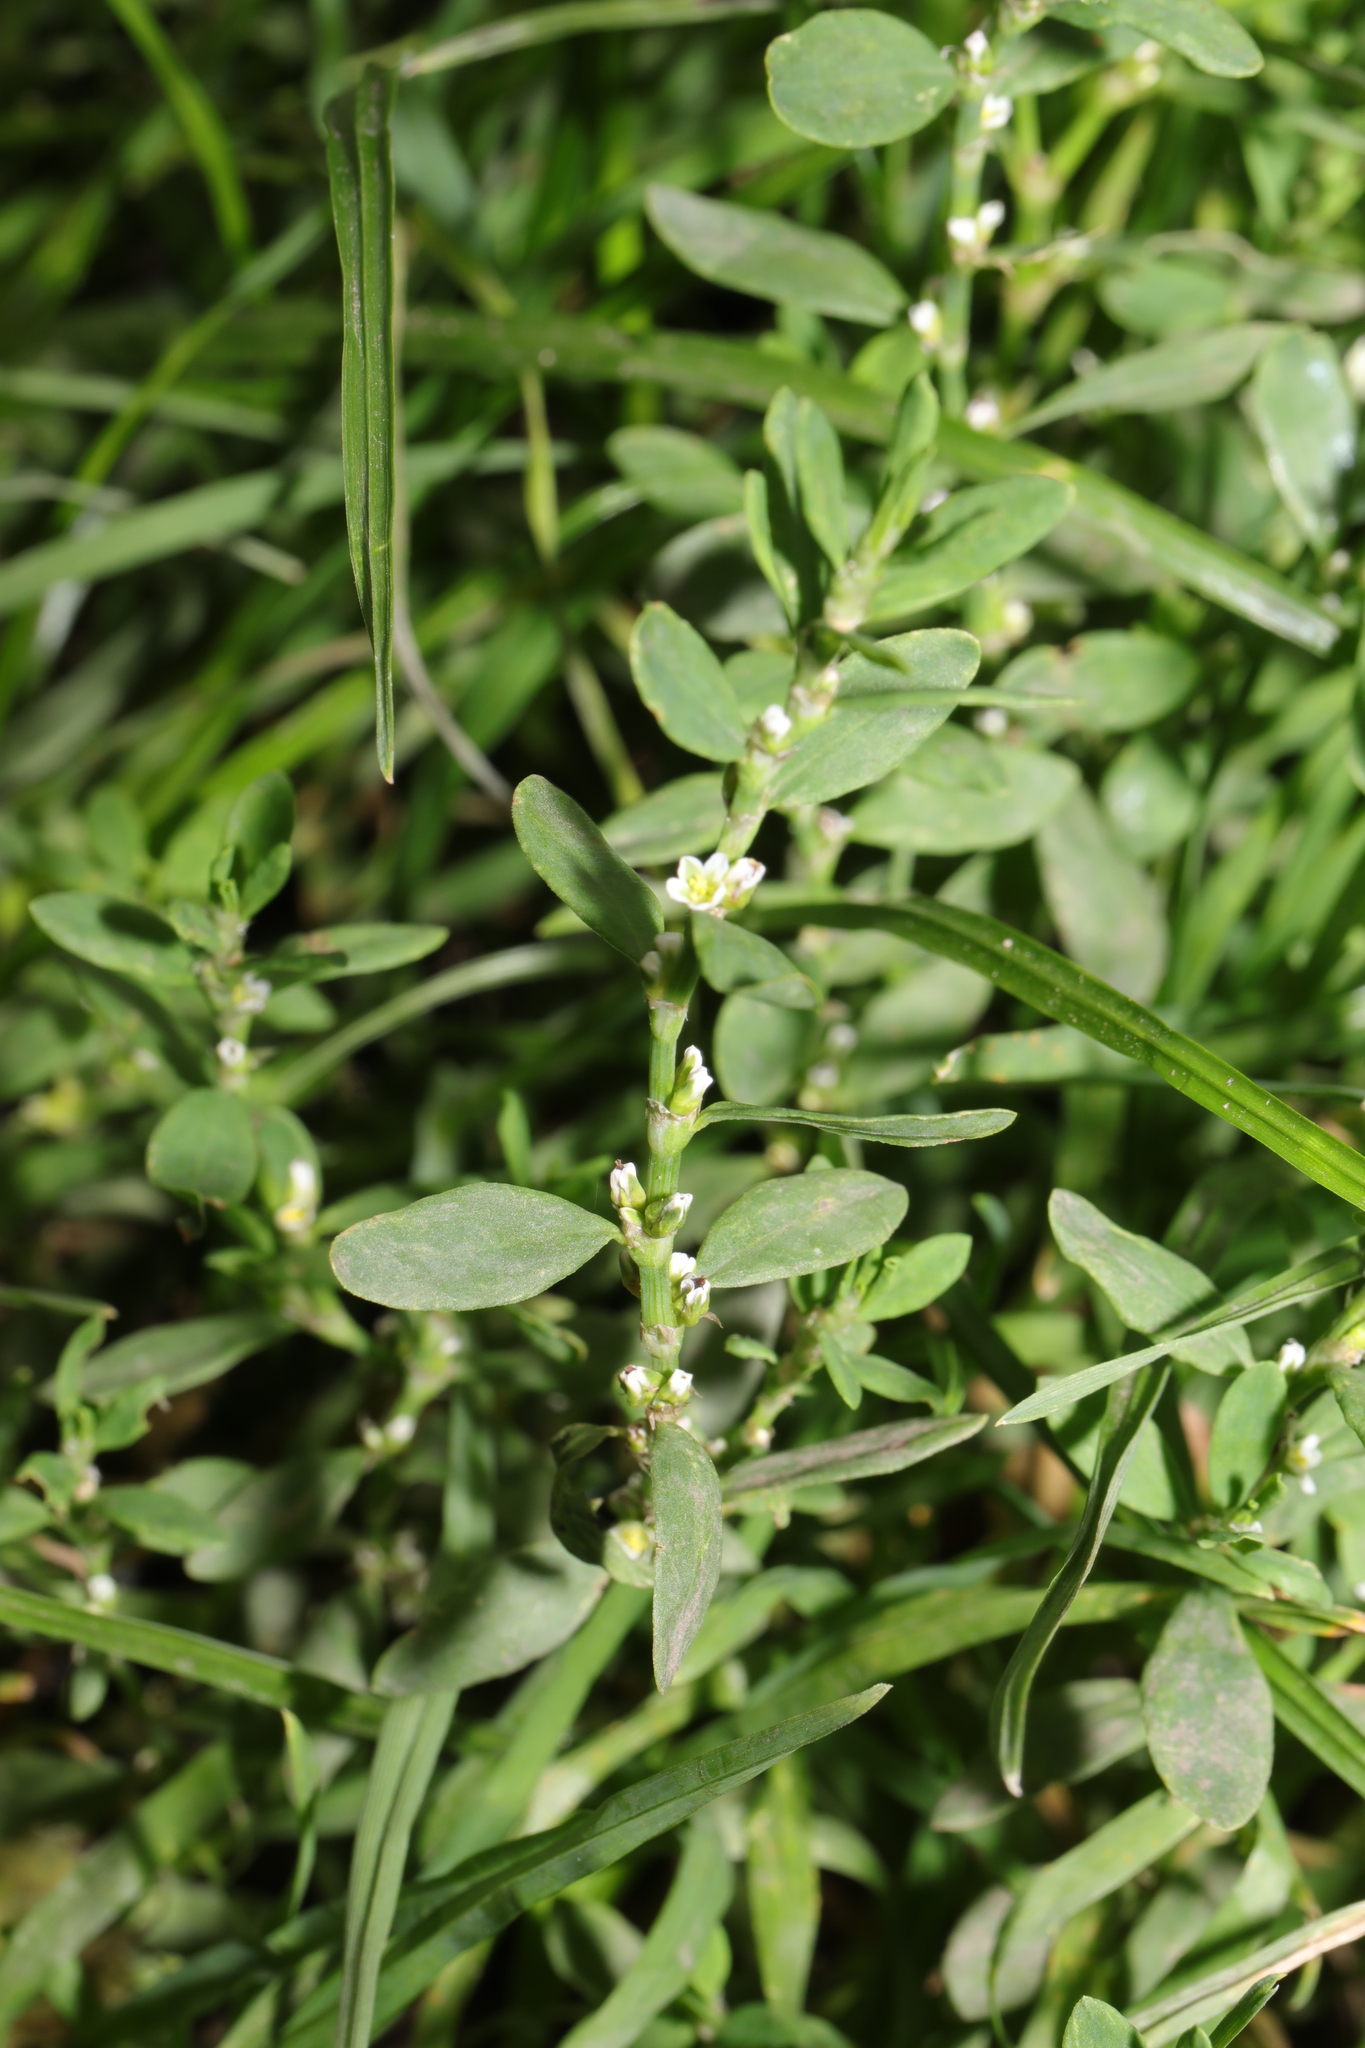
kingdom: Plantae
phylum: Tracheophyta
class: Magnoliopsida
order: Caryophyllales
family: Polygonaceae
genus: Polygonum
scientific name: Polygonum aviculare
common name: Prostrate knotweed
